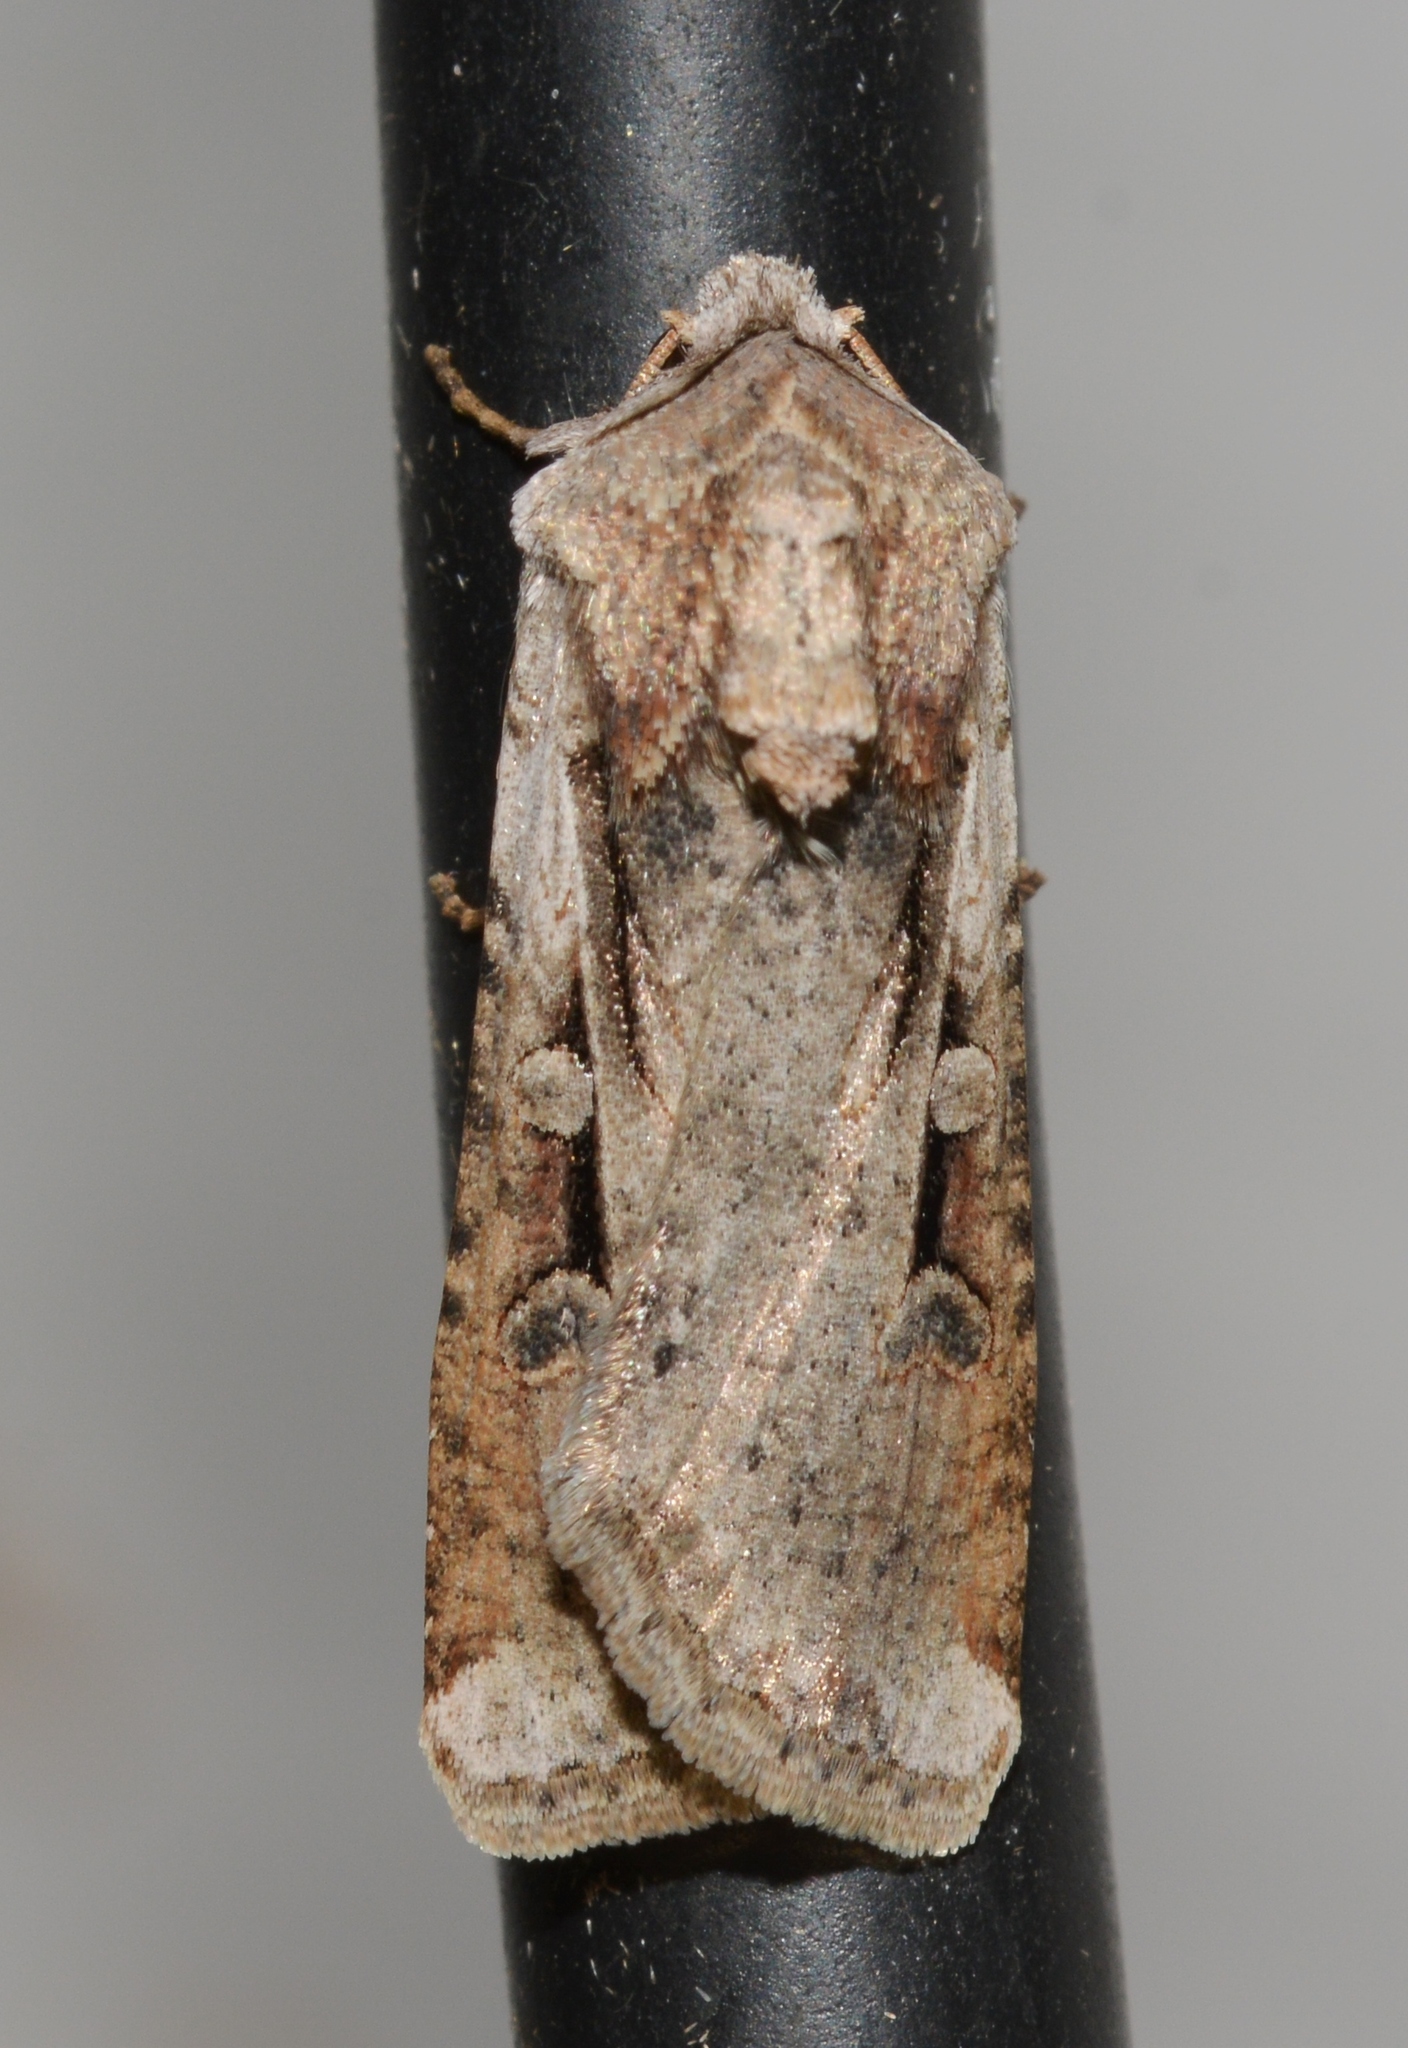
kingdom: Animalia
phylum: Arthropoda
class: Insecta
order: Lepidoptera
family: Noctuidae
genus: Hemieuxoa
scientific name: Hemieuxoa rudens
